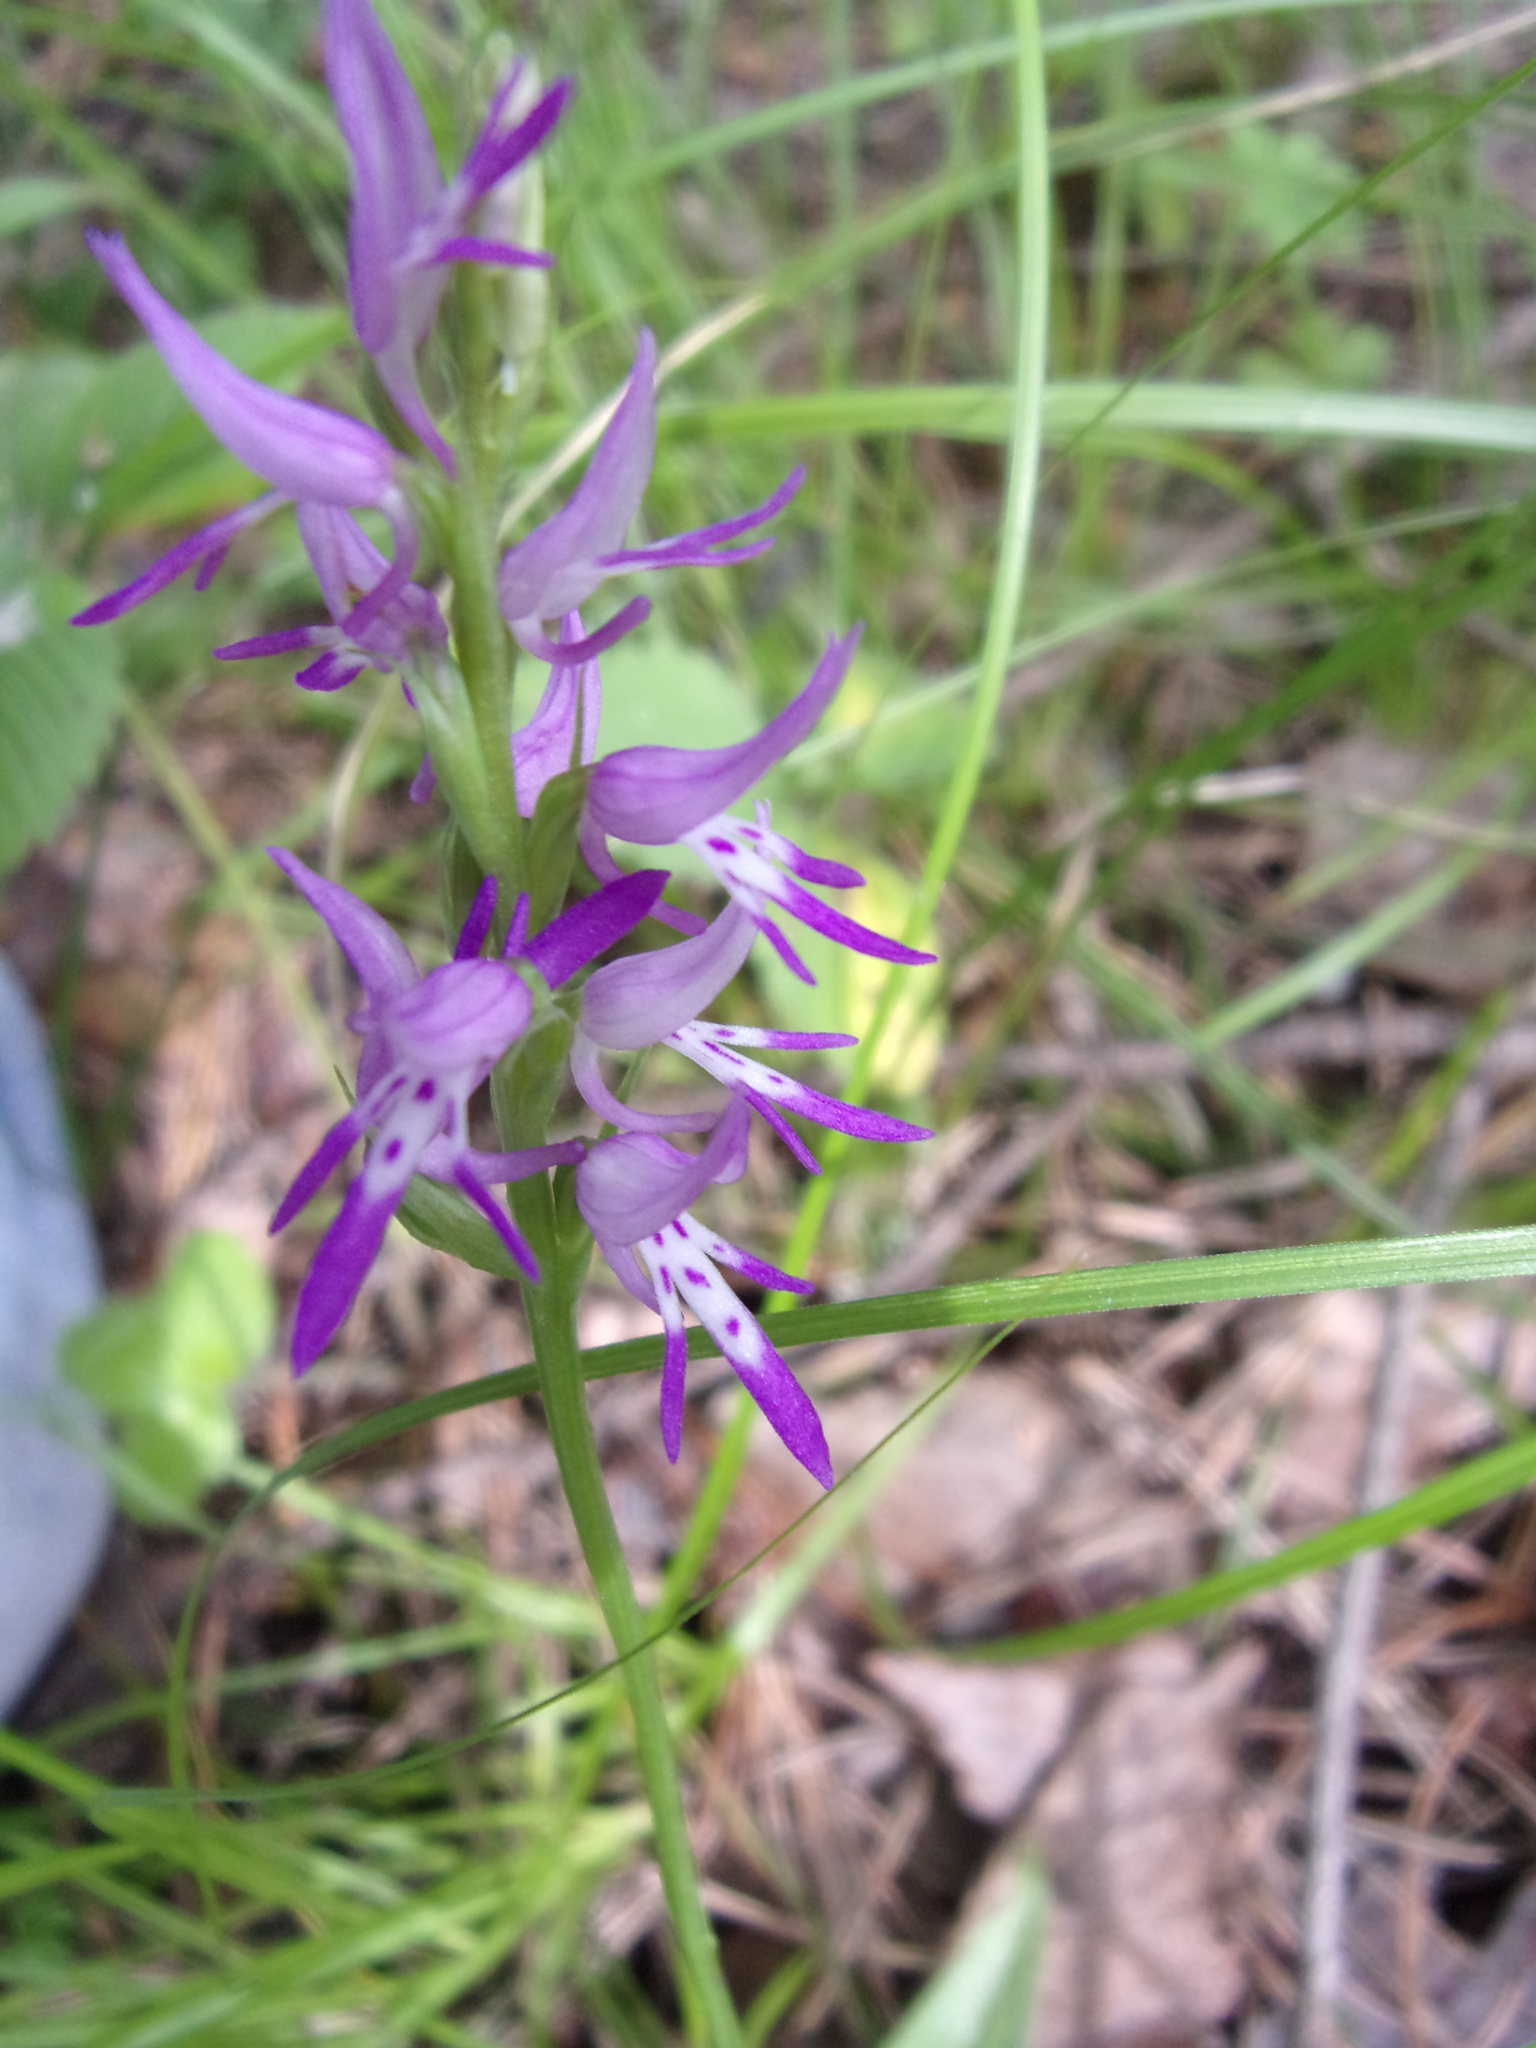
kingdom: Plantae
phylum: Tracheophyta
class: Liliopsida
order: Asparagales
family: Orchidaceae
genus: Hemipilia
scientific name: Hemipilia cucullata
